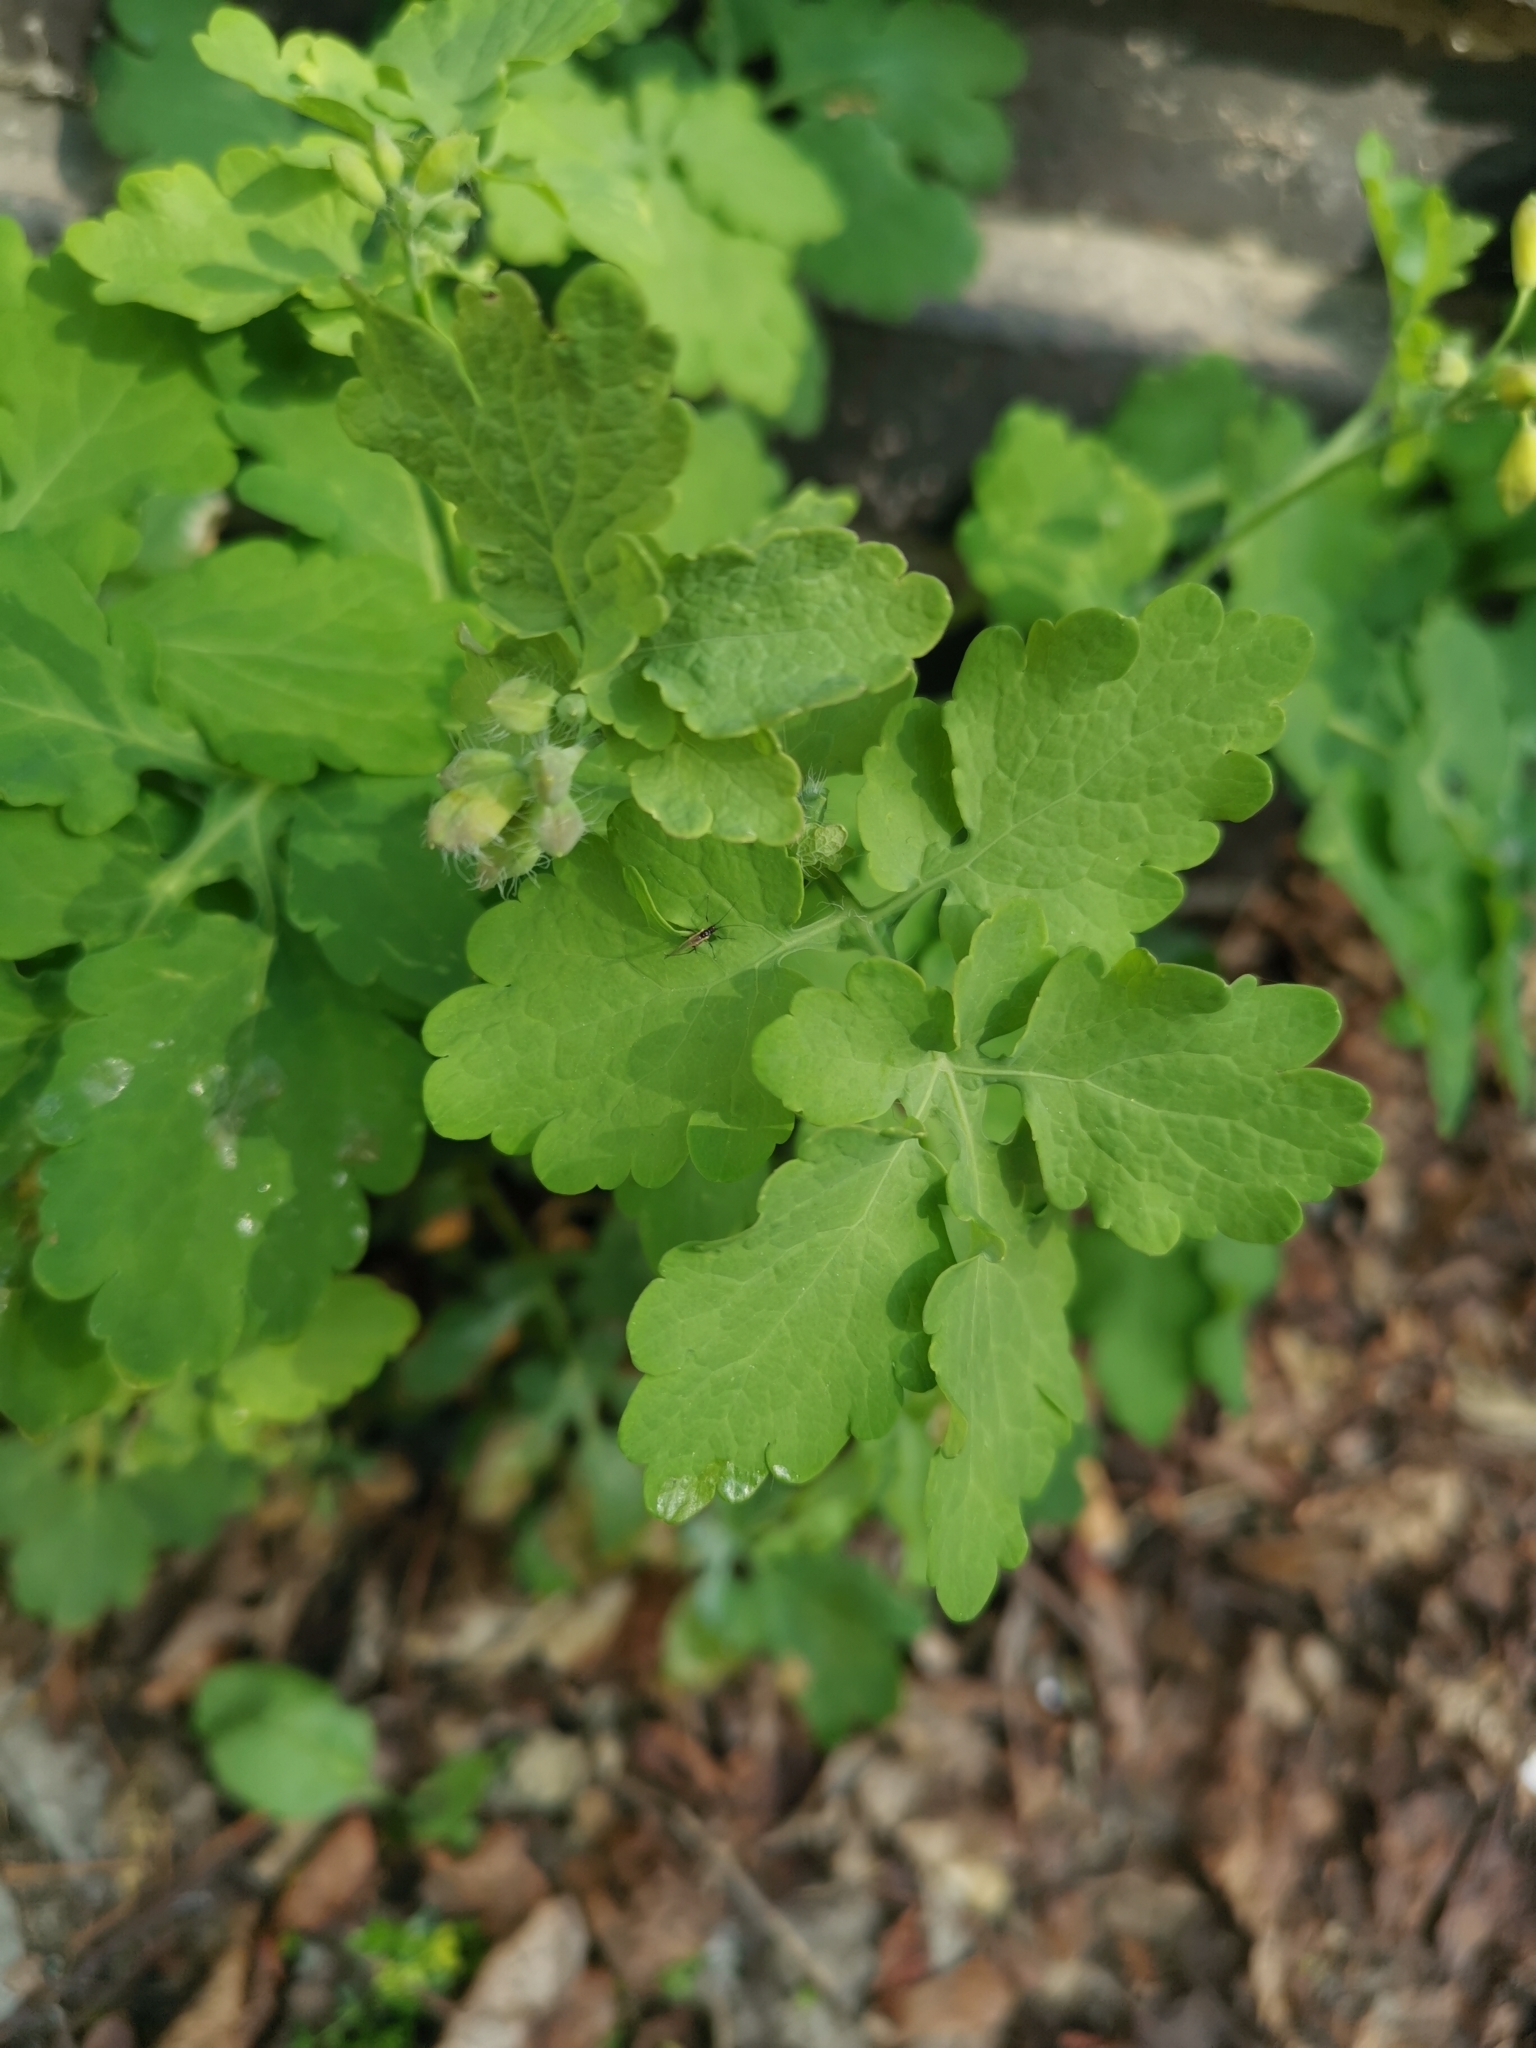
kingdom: Plantae
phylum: Tracheophyta
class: Magnoliopsida
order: Ranunculales
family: Papaveraceae
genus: Chelidonium
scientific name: Chelidonium majus
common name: Greater celandine
